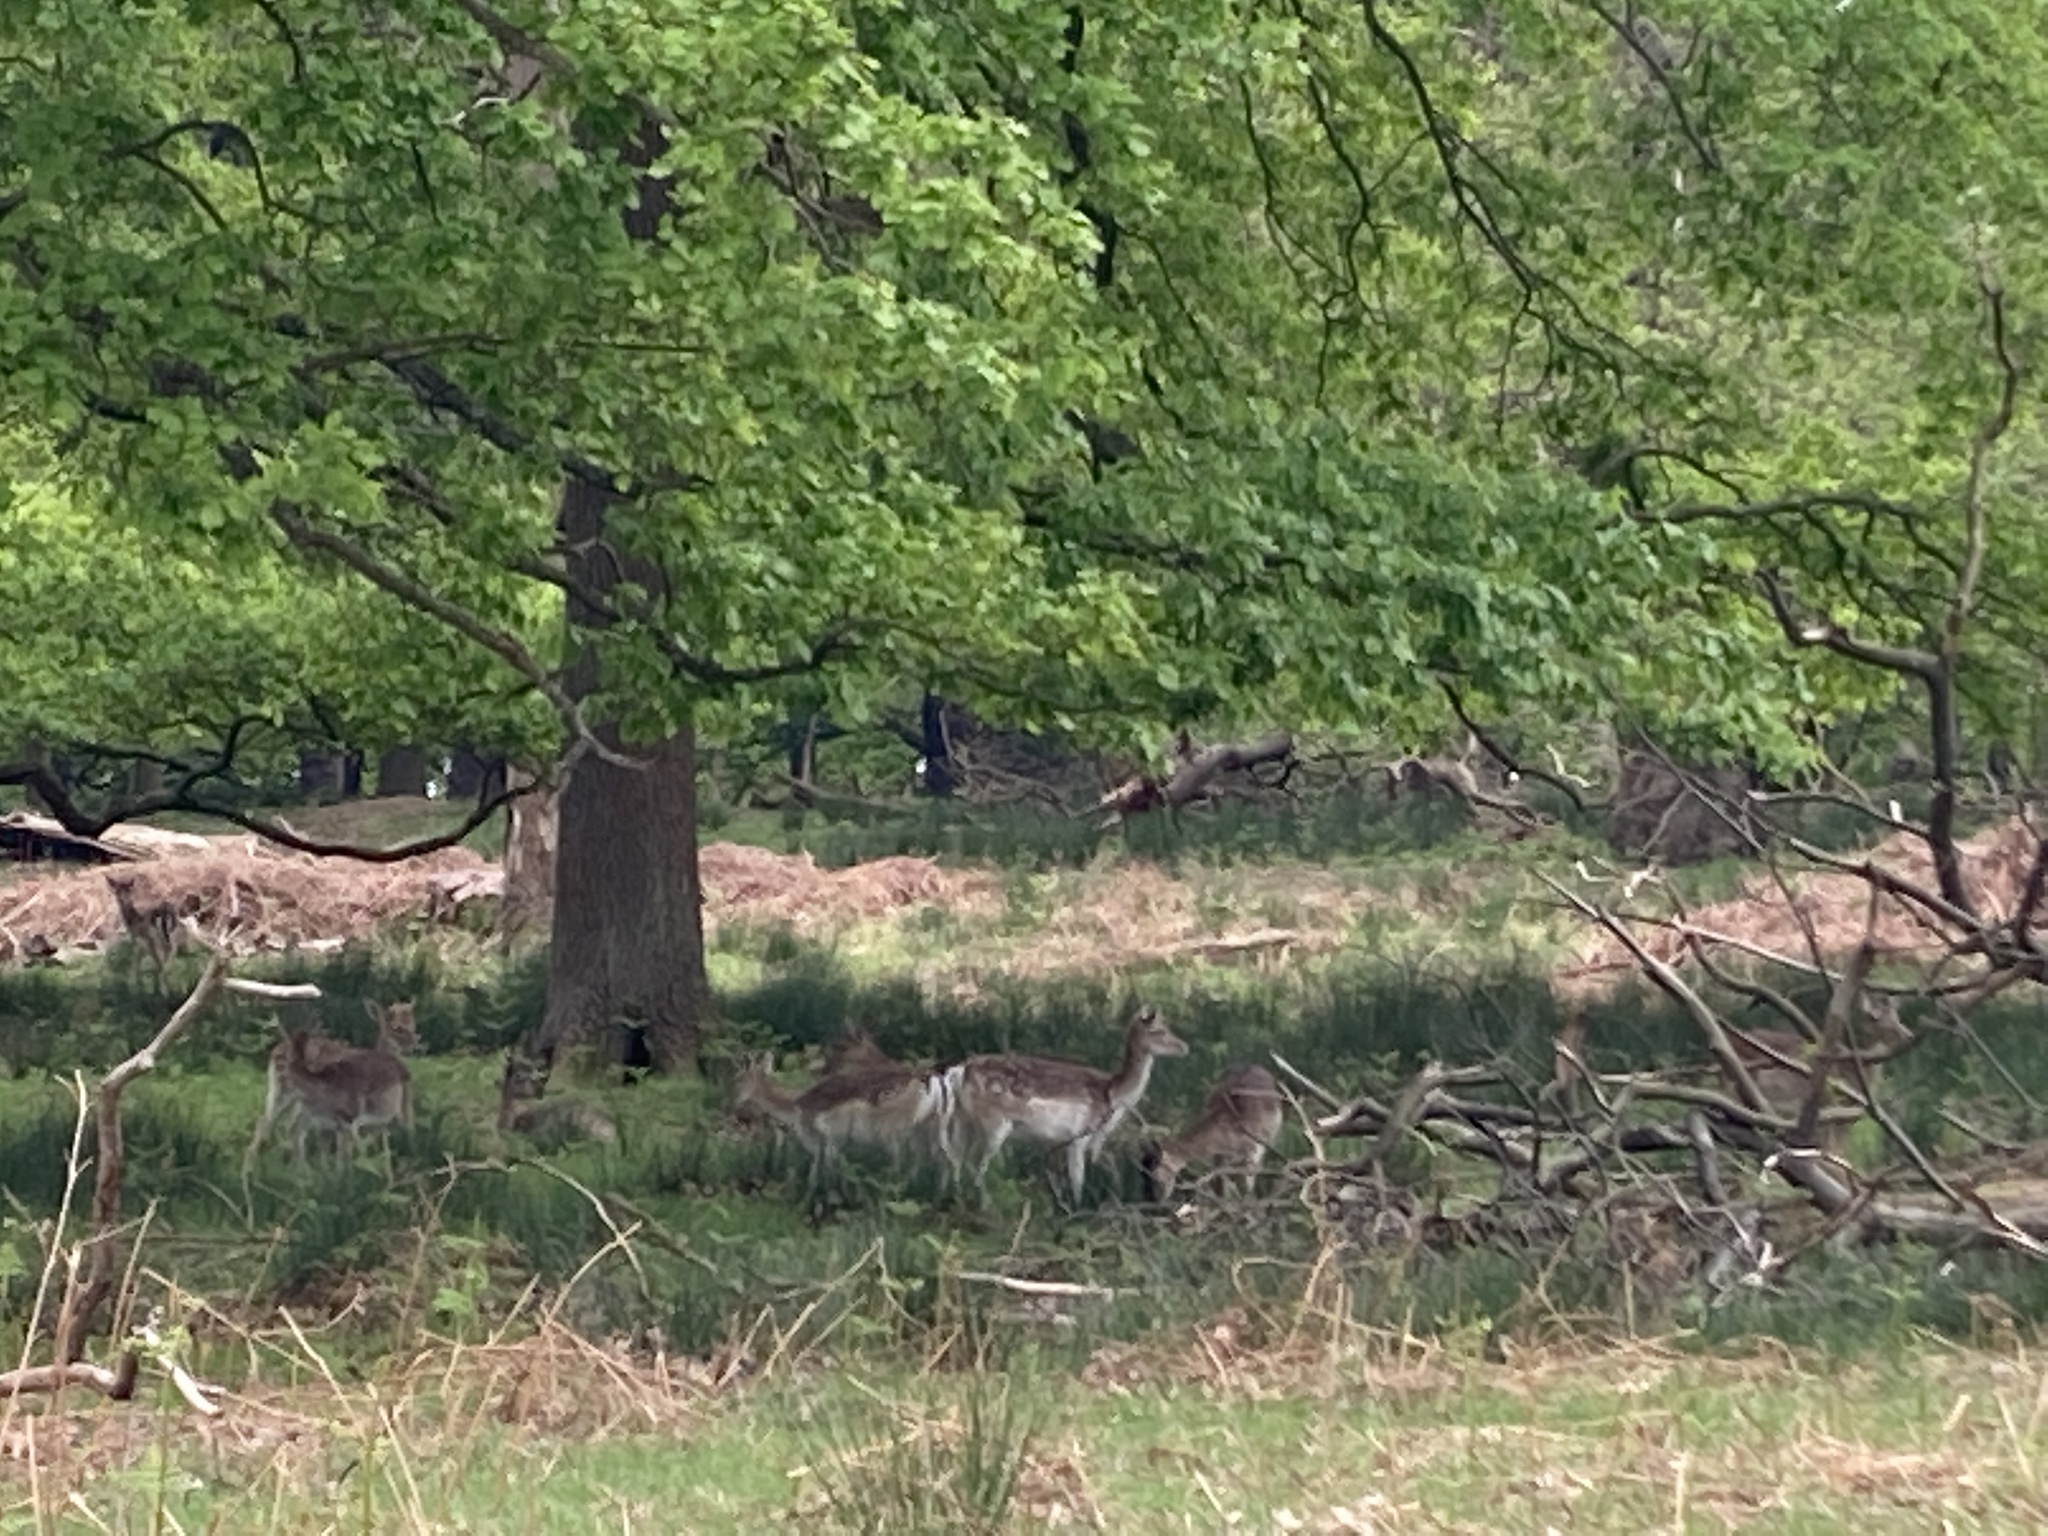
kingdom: Animalia
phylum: Chordata
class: Mammalia
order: Artiodactyla
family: Cervidae
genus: Dama
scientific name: Dama dama
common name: Fallow deer
